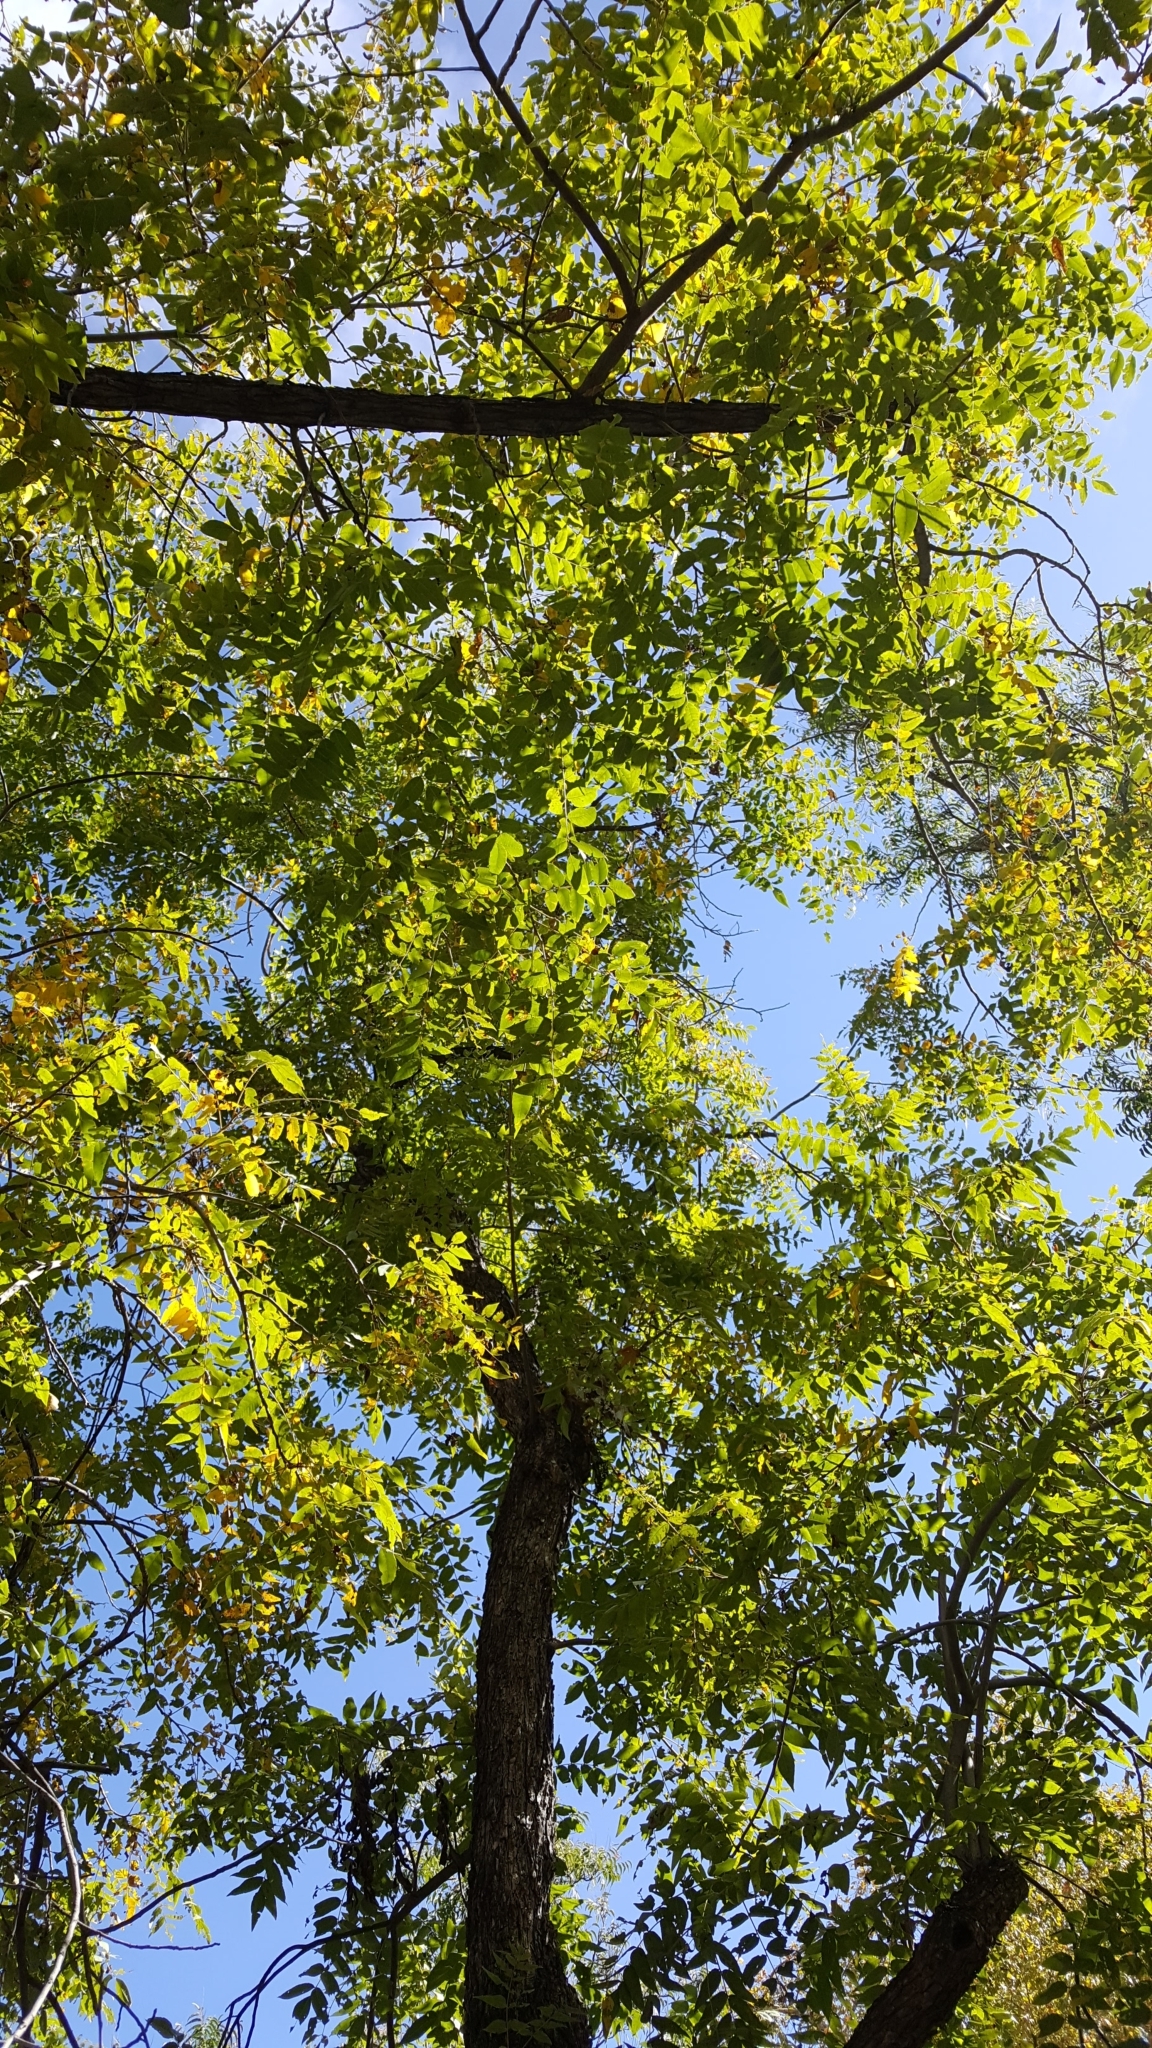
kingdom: Plantae
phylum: Tracheophyta
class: Magnoliopsida
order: Fagales
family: Juglandaceae
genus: Juglans
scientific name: Juglans major
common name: Arizona walnut
